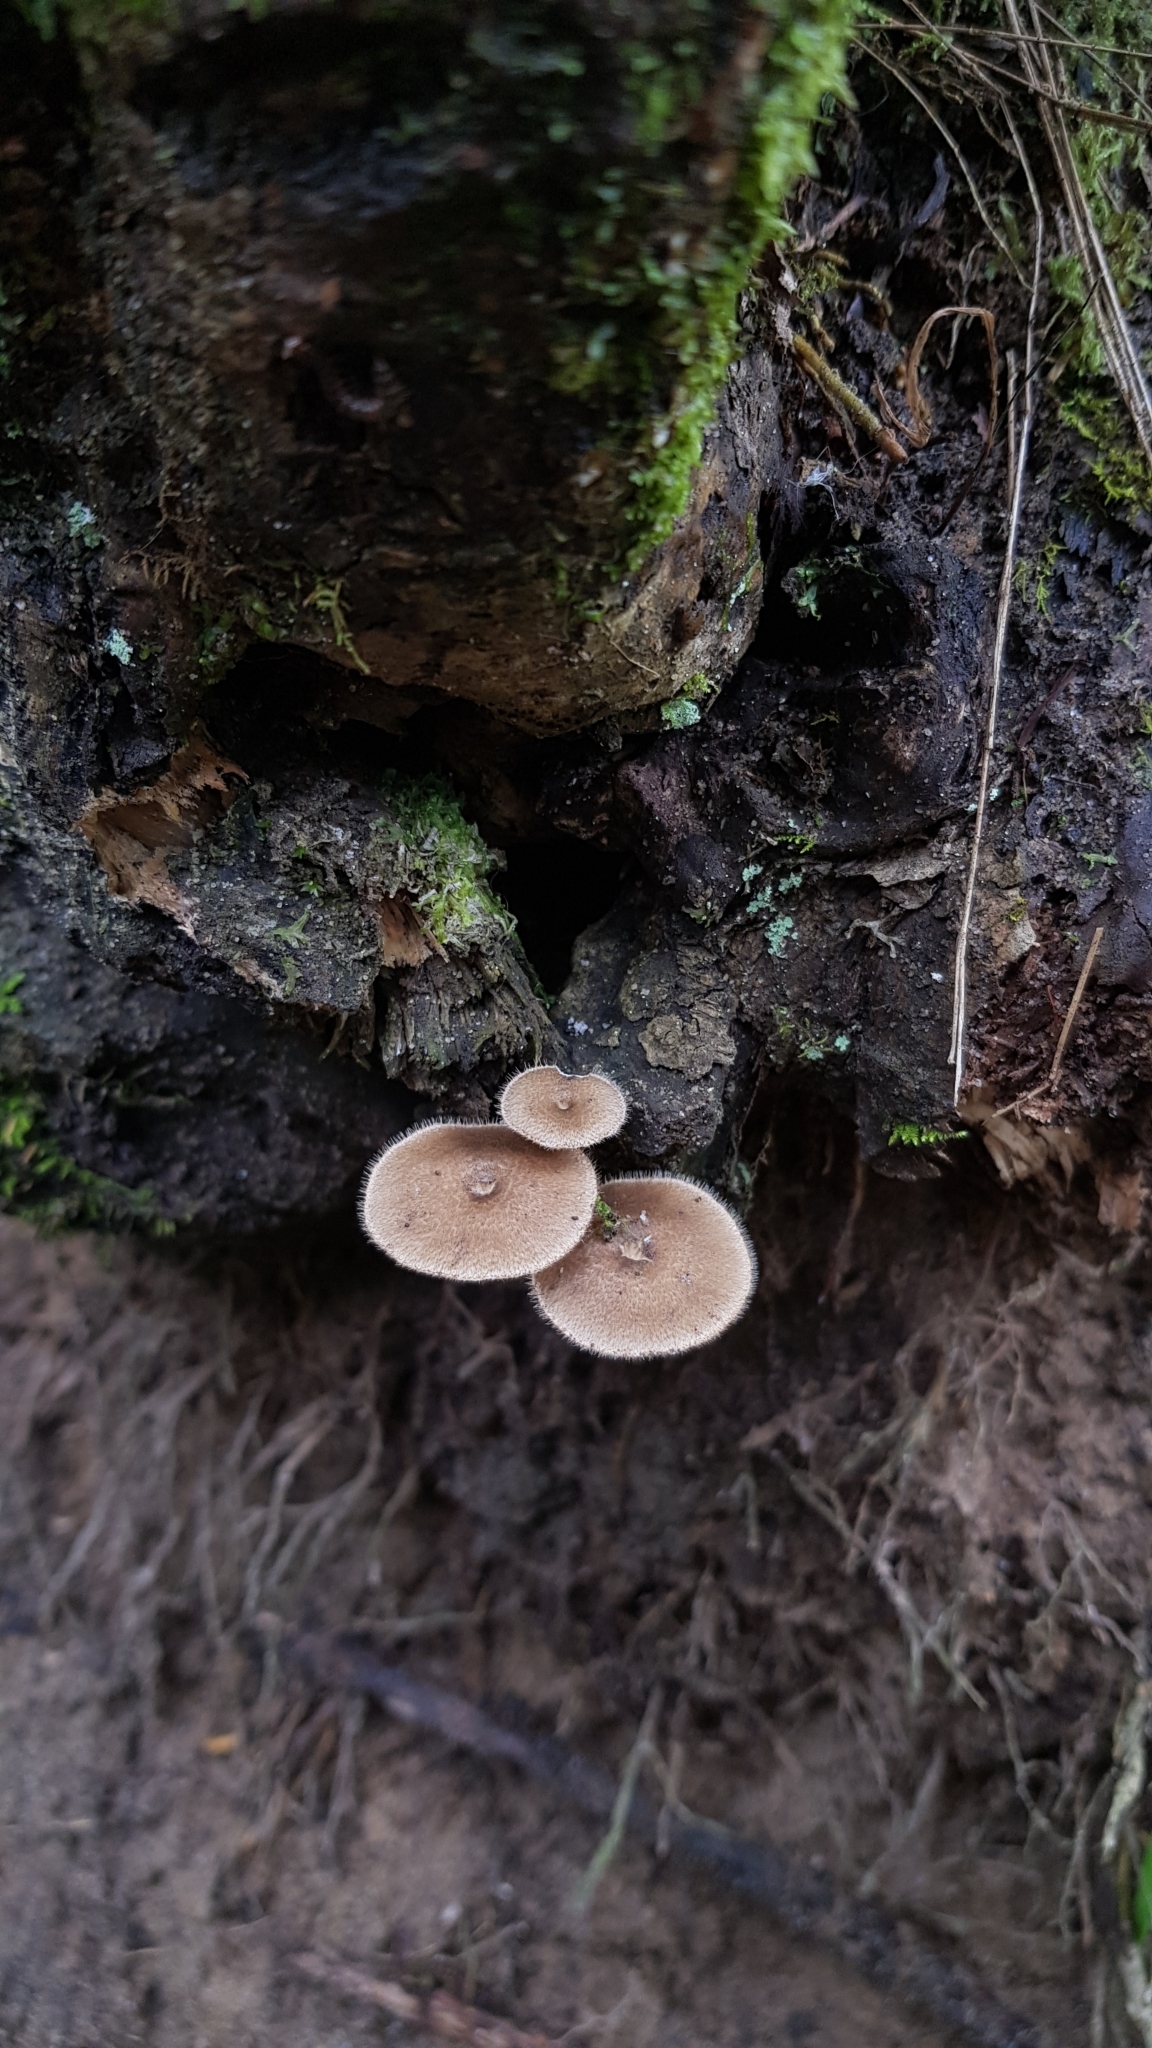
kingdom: Fungi
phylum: Basidiomycota
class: Agaricomycetes
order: Polyporales
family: Polyporaceae
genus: Lentinus
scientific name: Lentinus arcularius
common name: Spring polypore
